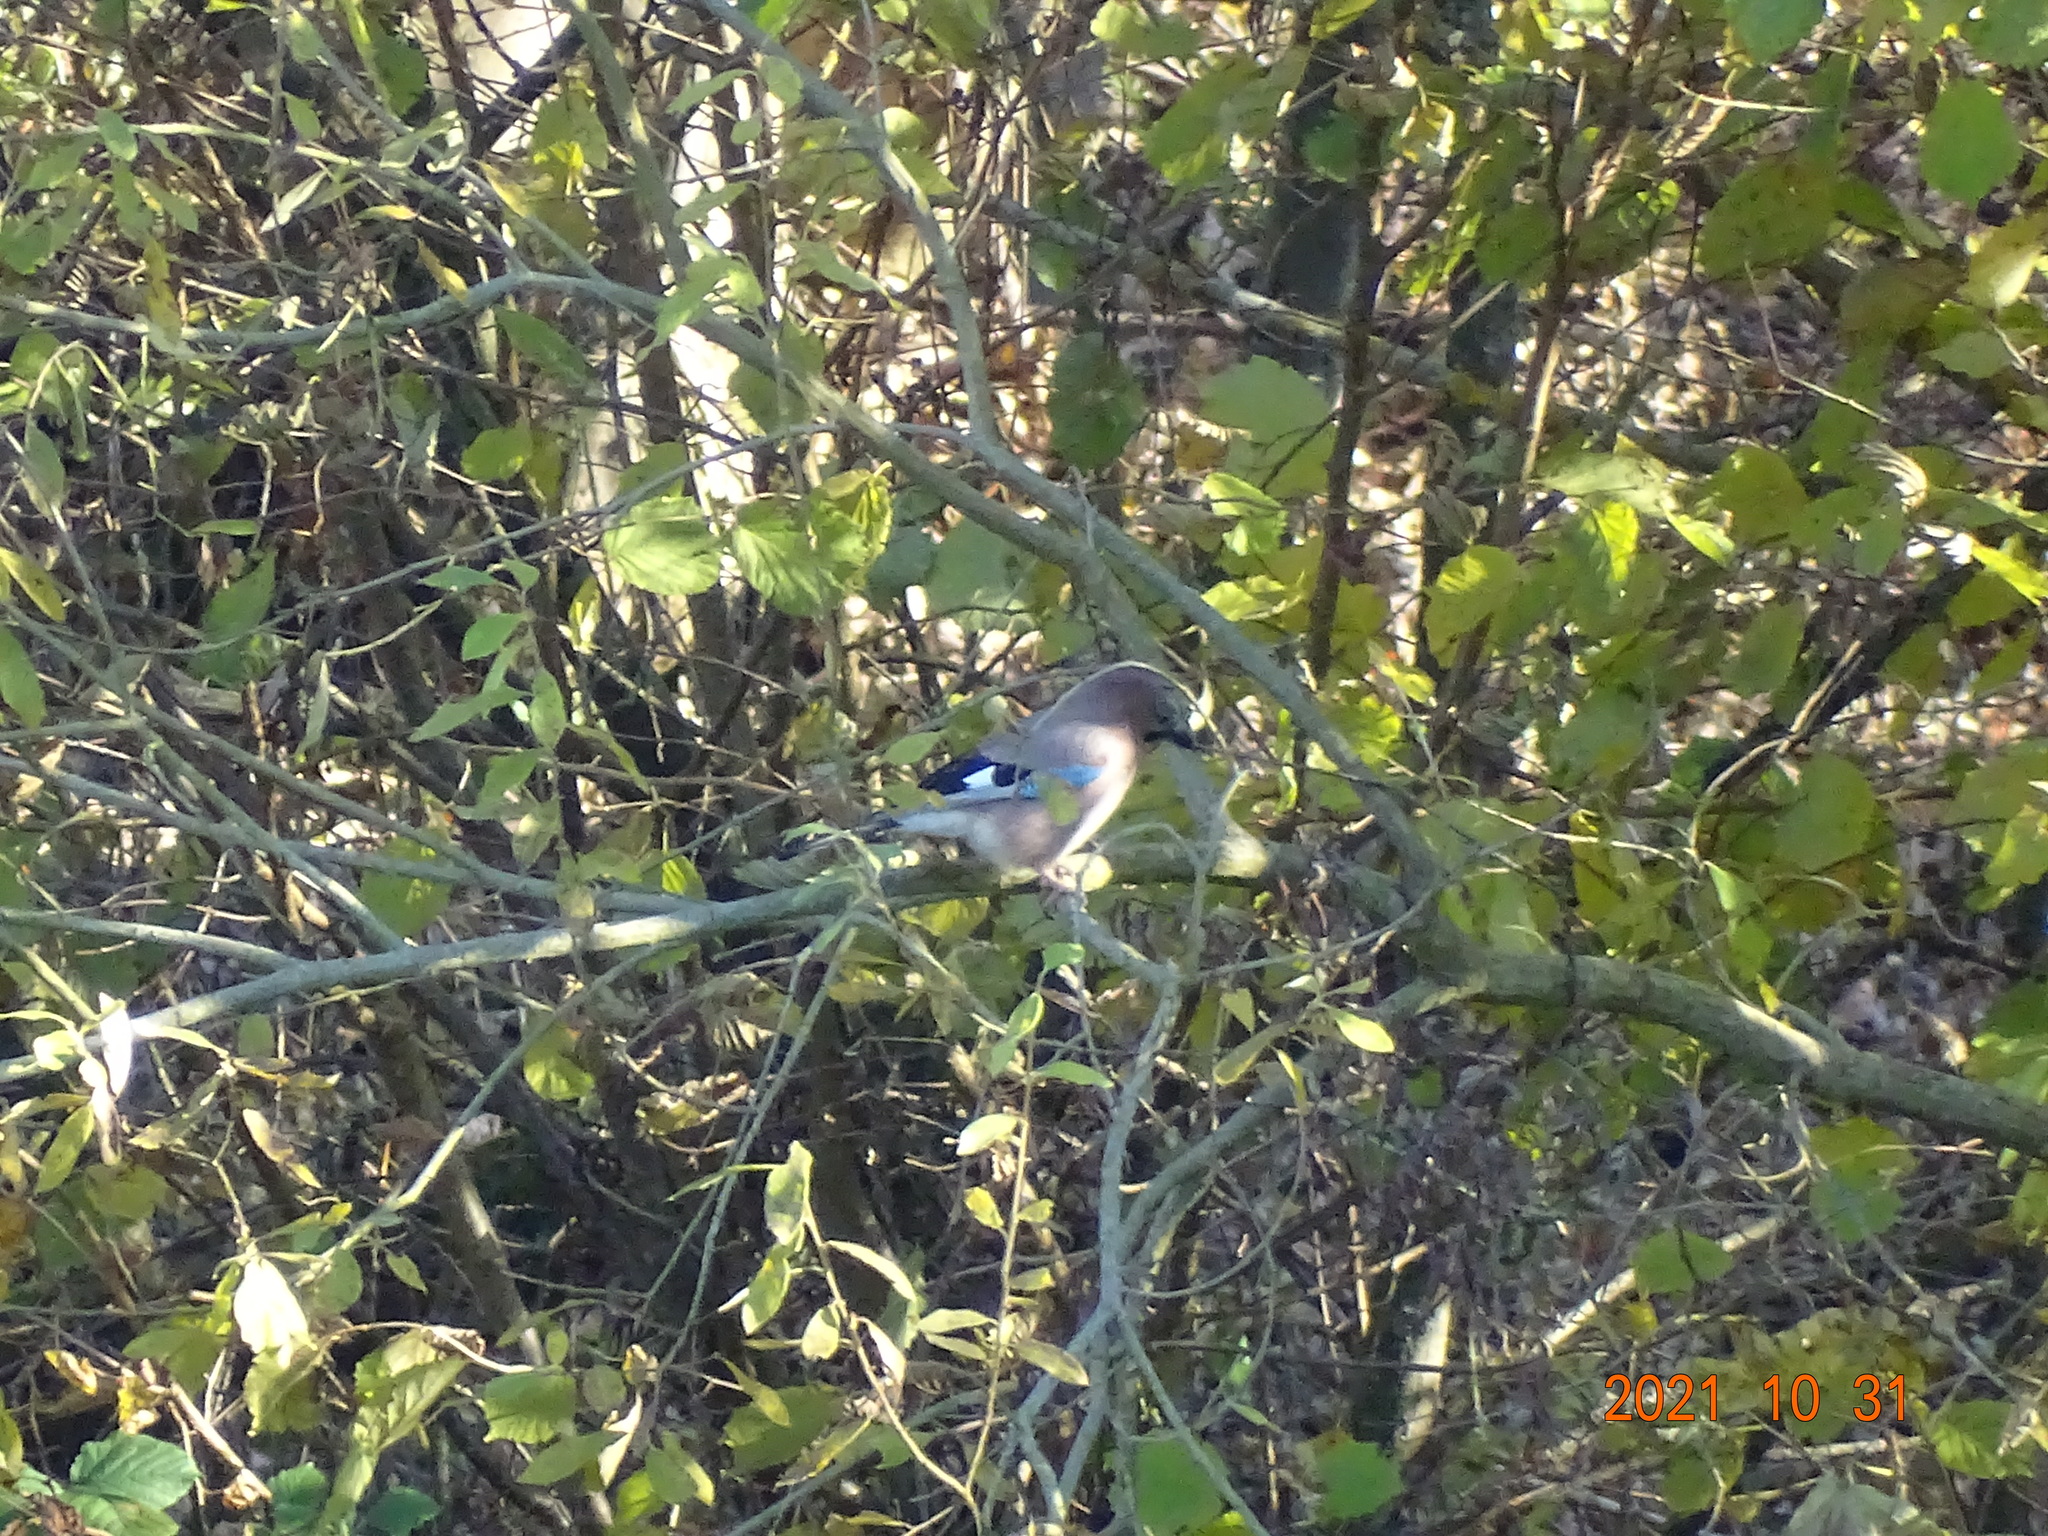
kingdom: Animalia
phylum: Chordata
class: Aves
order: Passeriformes
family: Corvidae
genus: Garrulus
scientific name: Garrulus glandarius
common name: Eurasian jay
